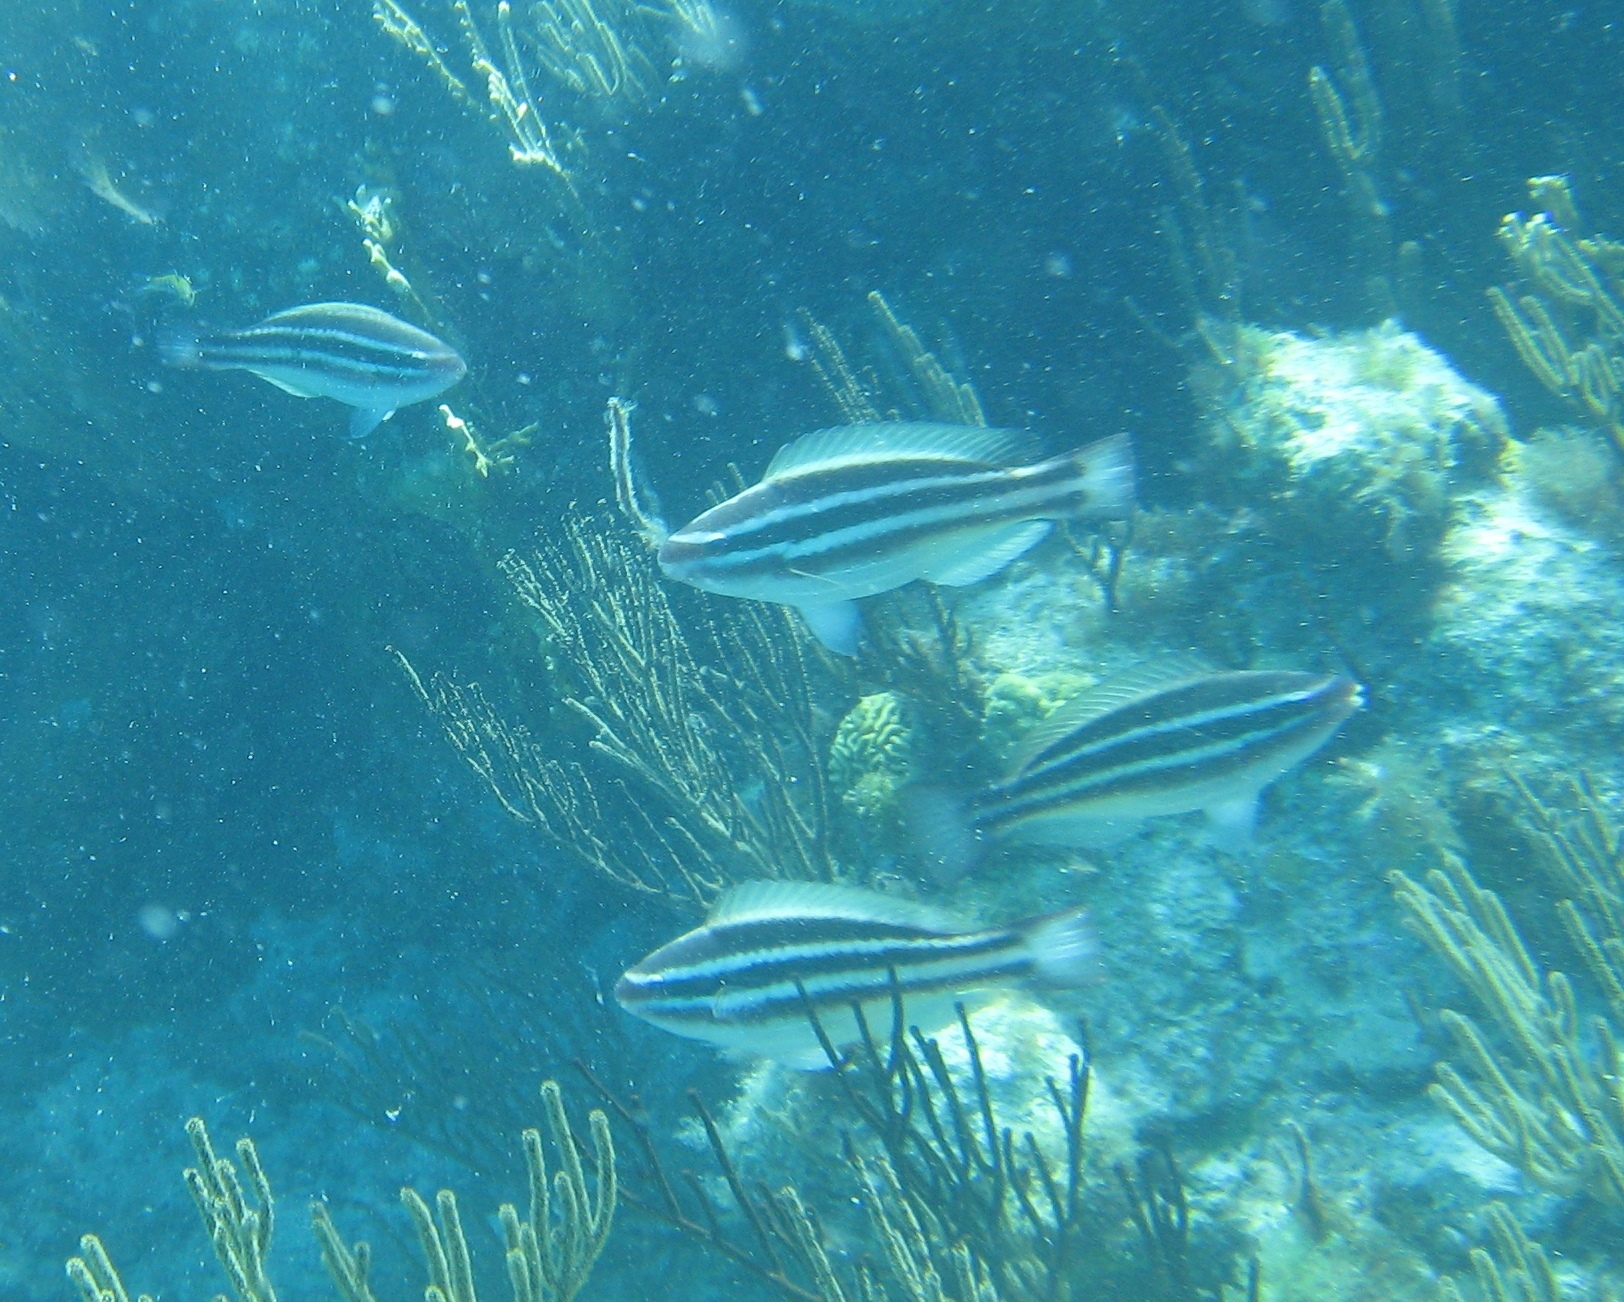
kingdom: Animalia
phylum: Chordata
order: Perciformes
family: Scaridae
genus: Scarus
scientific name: Scarus taeniopterus
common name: Princess parrotfish
